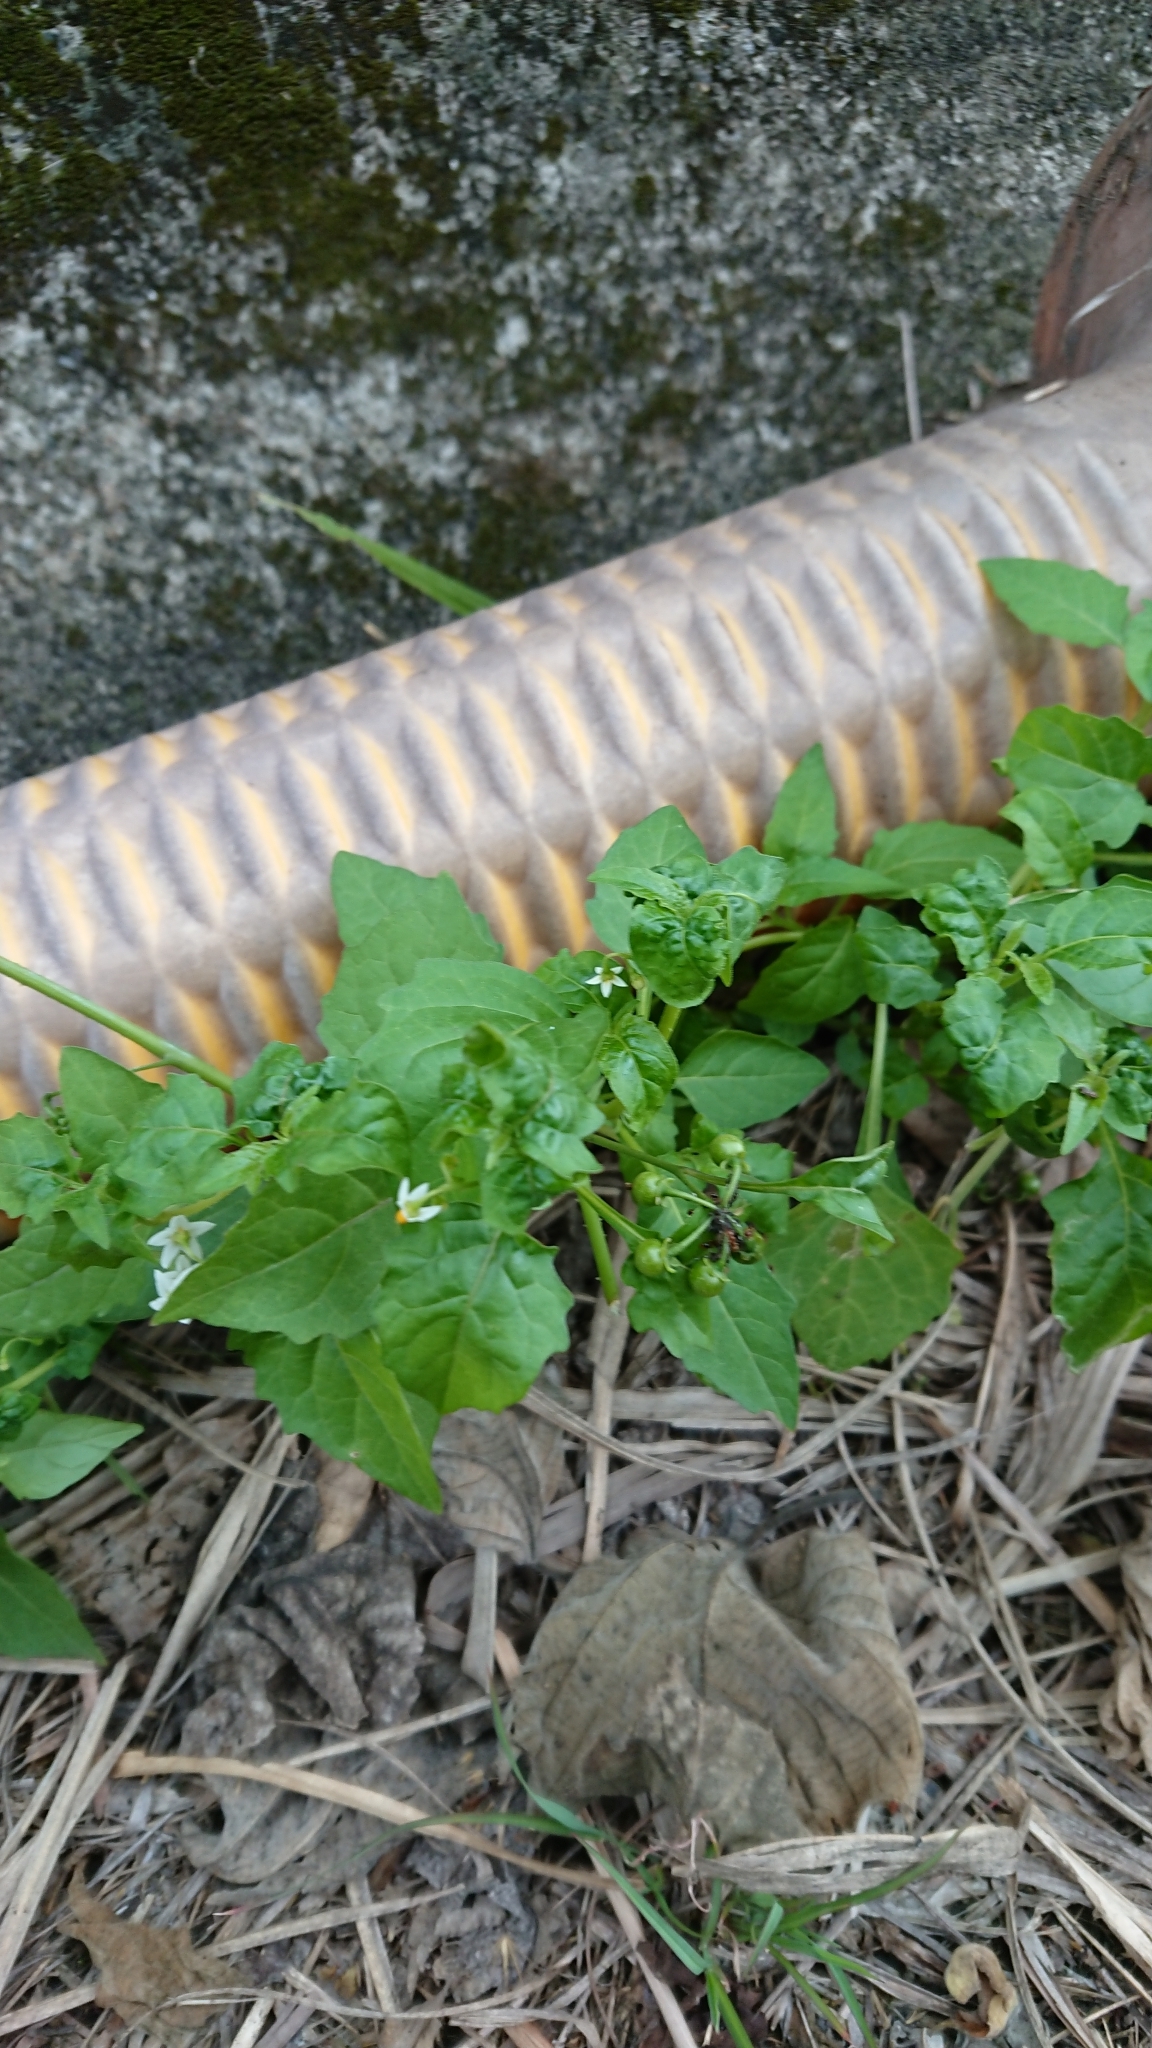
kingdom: Plantae
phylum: Tracheophyta
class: Magnoliopsida
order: Solanales
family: Solanaceae
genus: Solanum
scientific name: Solanum americanum
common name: American black nightshade
